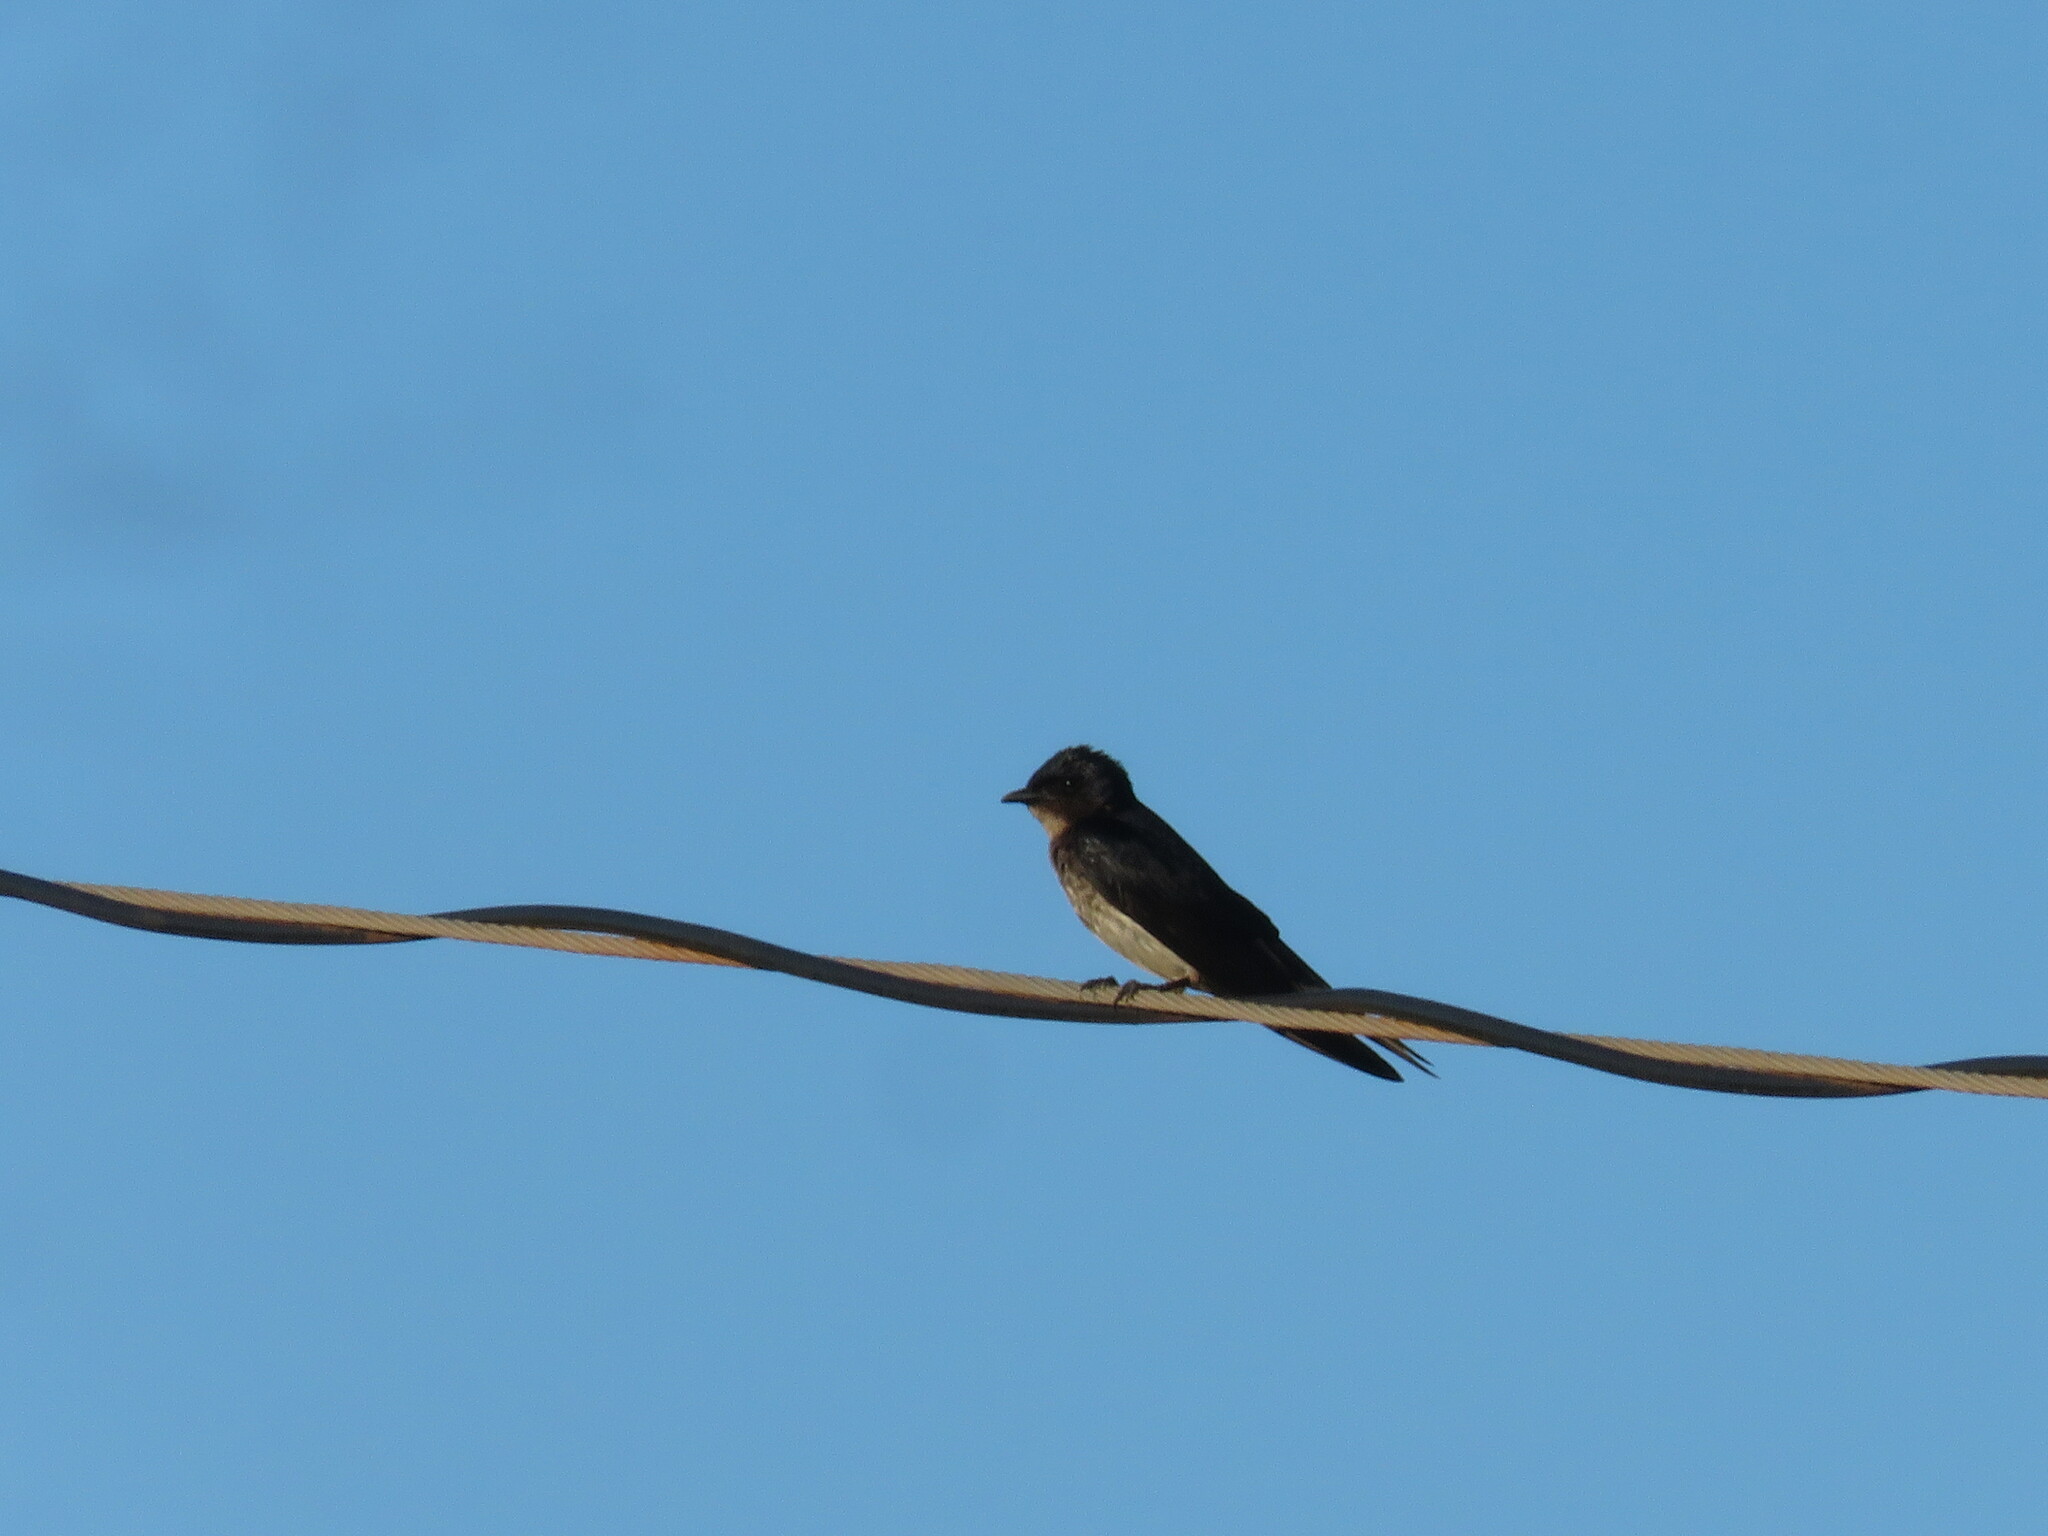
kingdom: Animalia
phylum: Chordata
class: Aves
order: Passeriformes
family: Hirundinidae
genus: Progne
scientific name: Progne chalybea
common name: Grey-breasted martin
